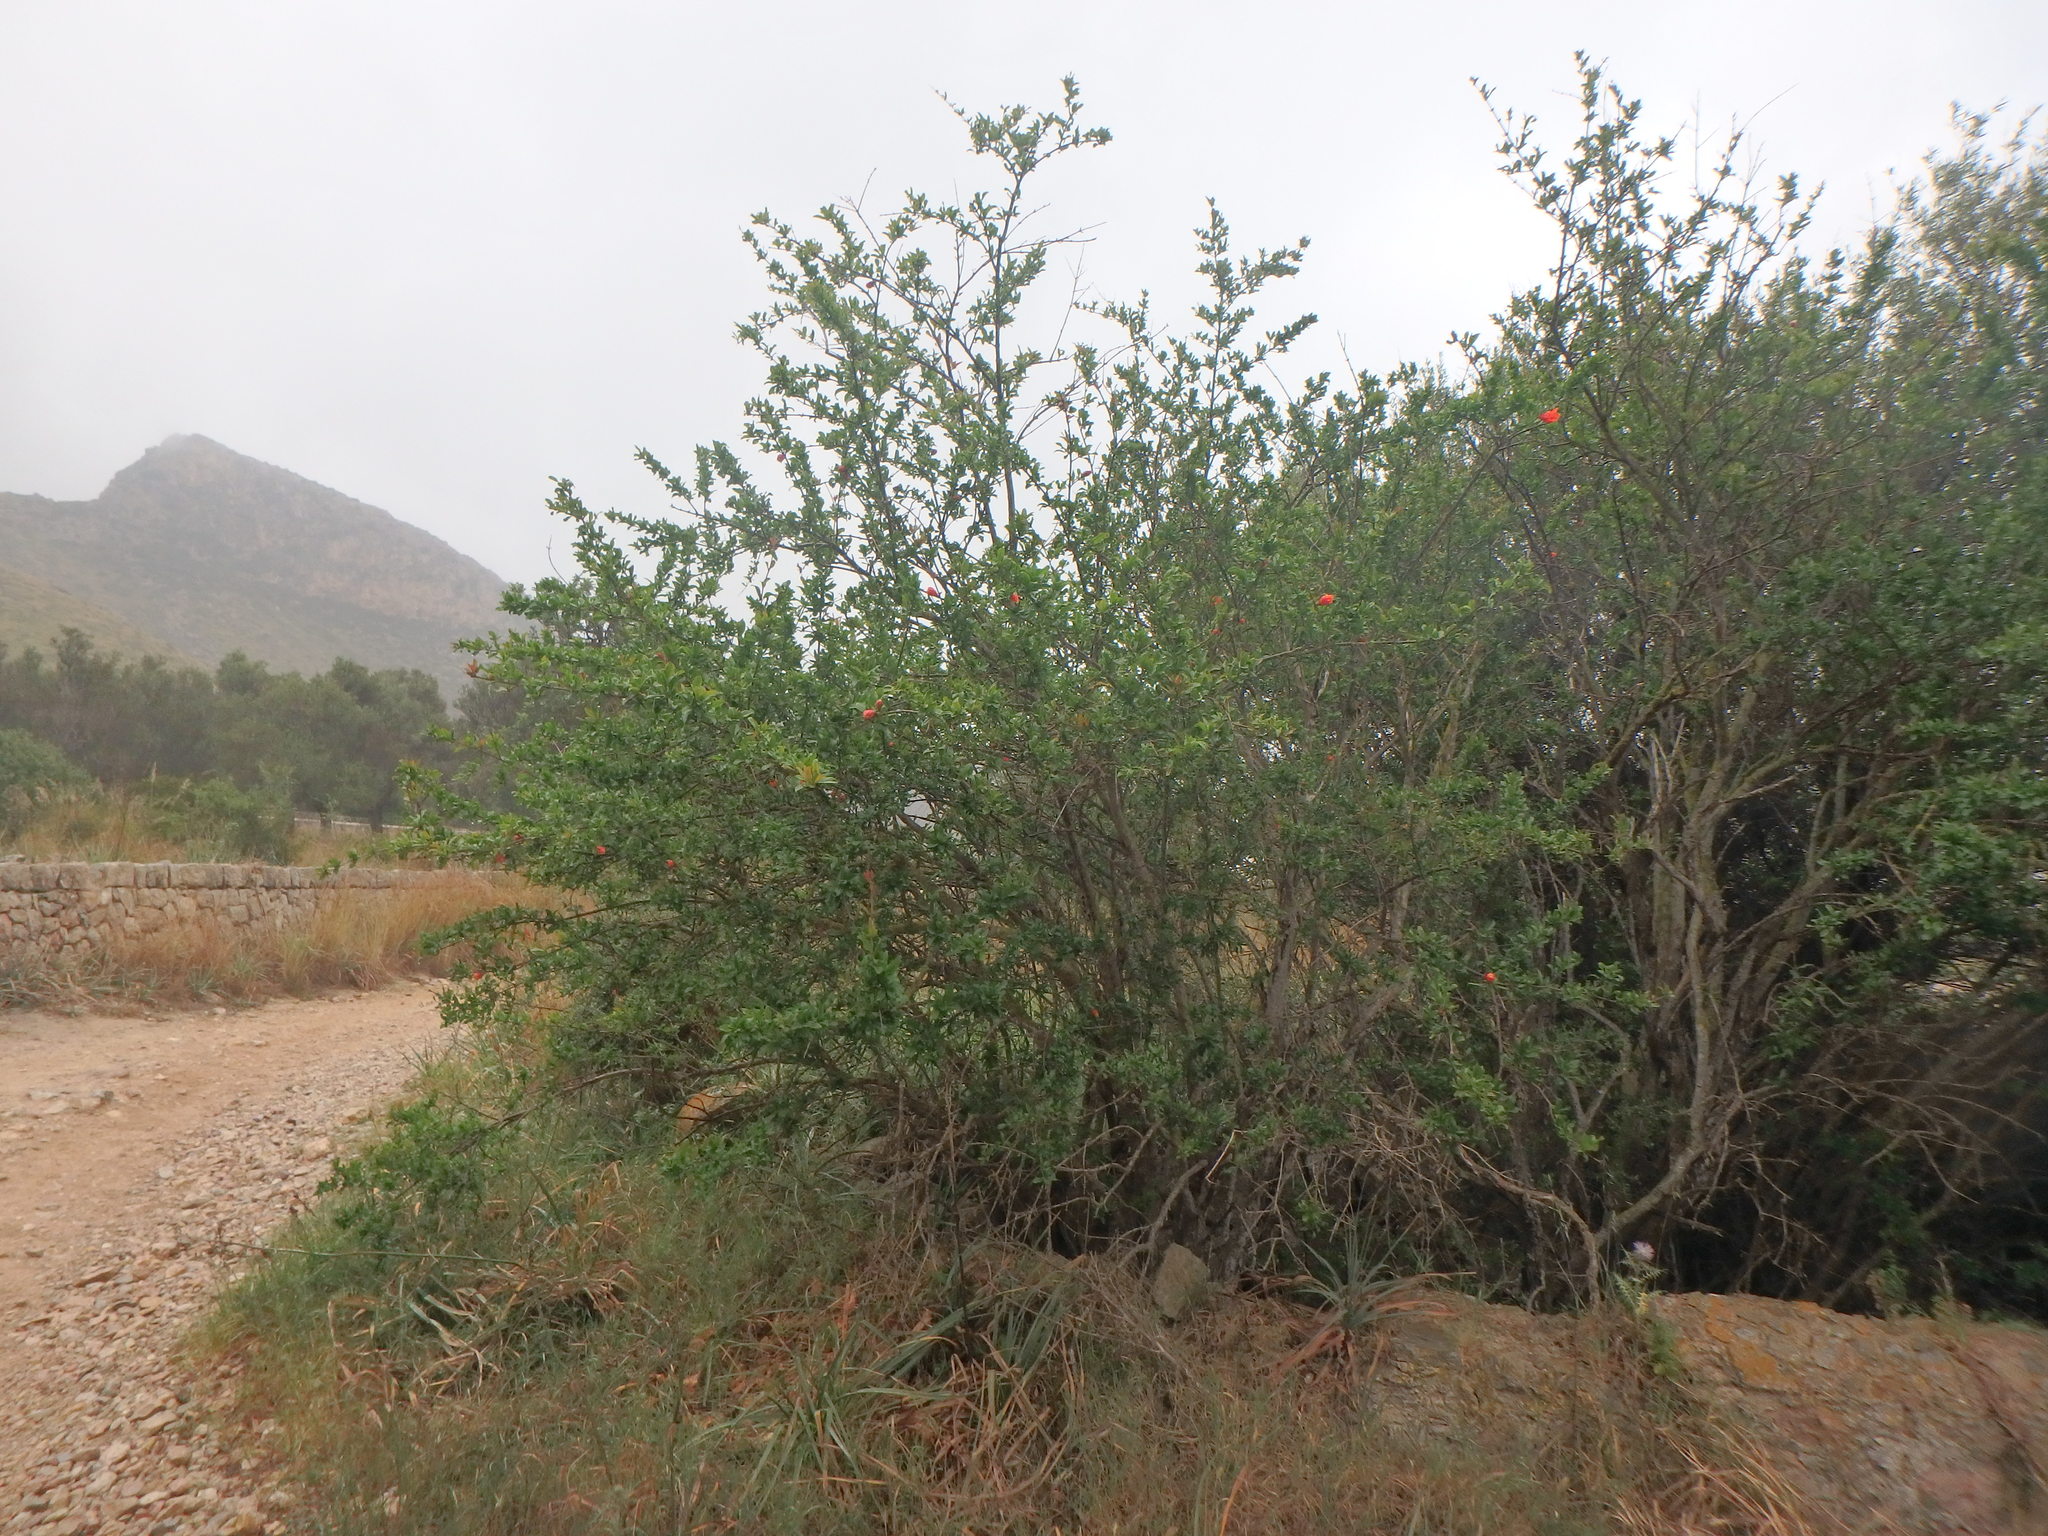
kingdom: Plantae
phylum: Tracheophyta
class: Magnoliopsida
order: Myrtales
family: Lythraceae
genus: Punica
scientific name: Punica granatum
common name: Pomegranate
